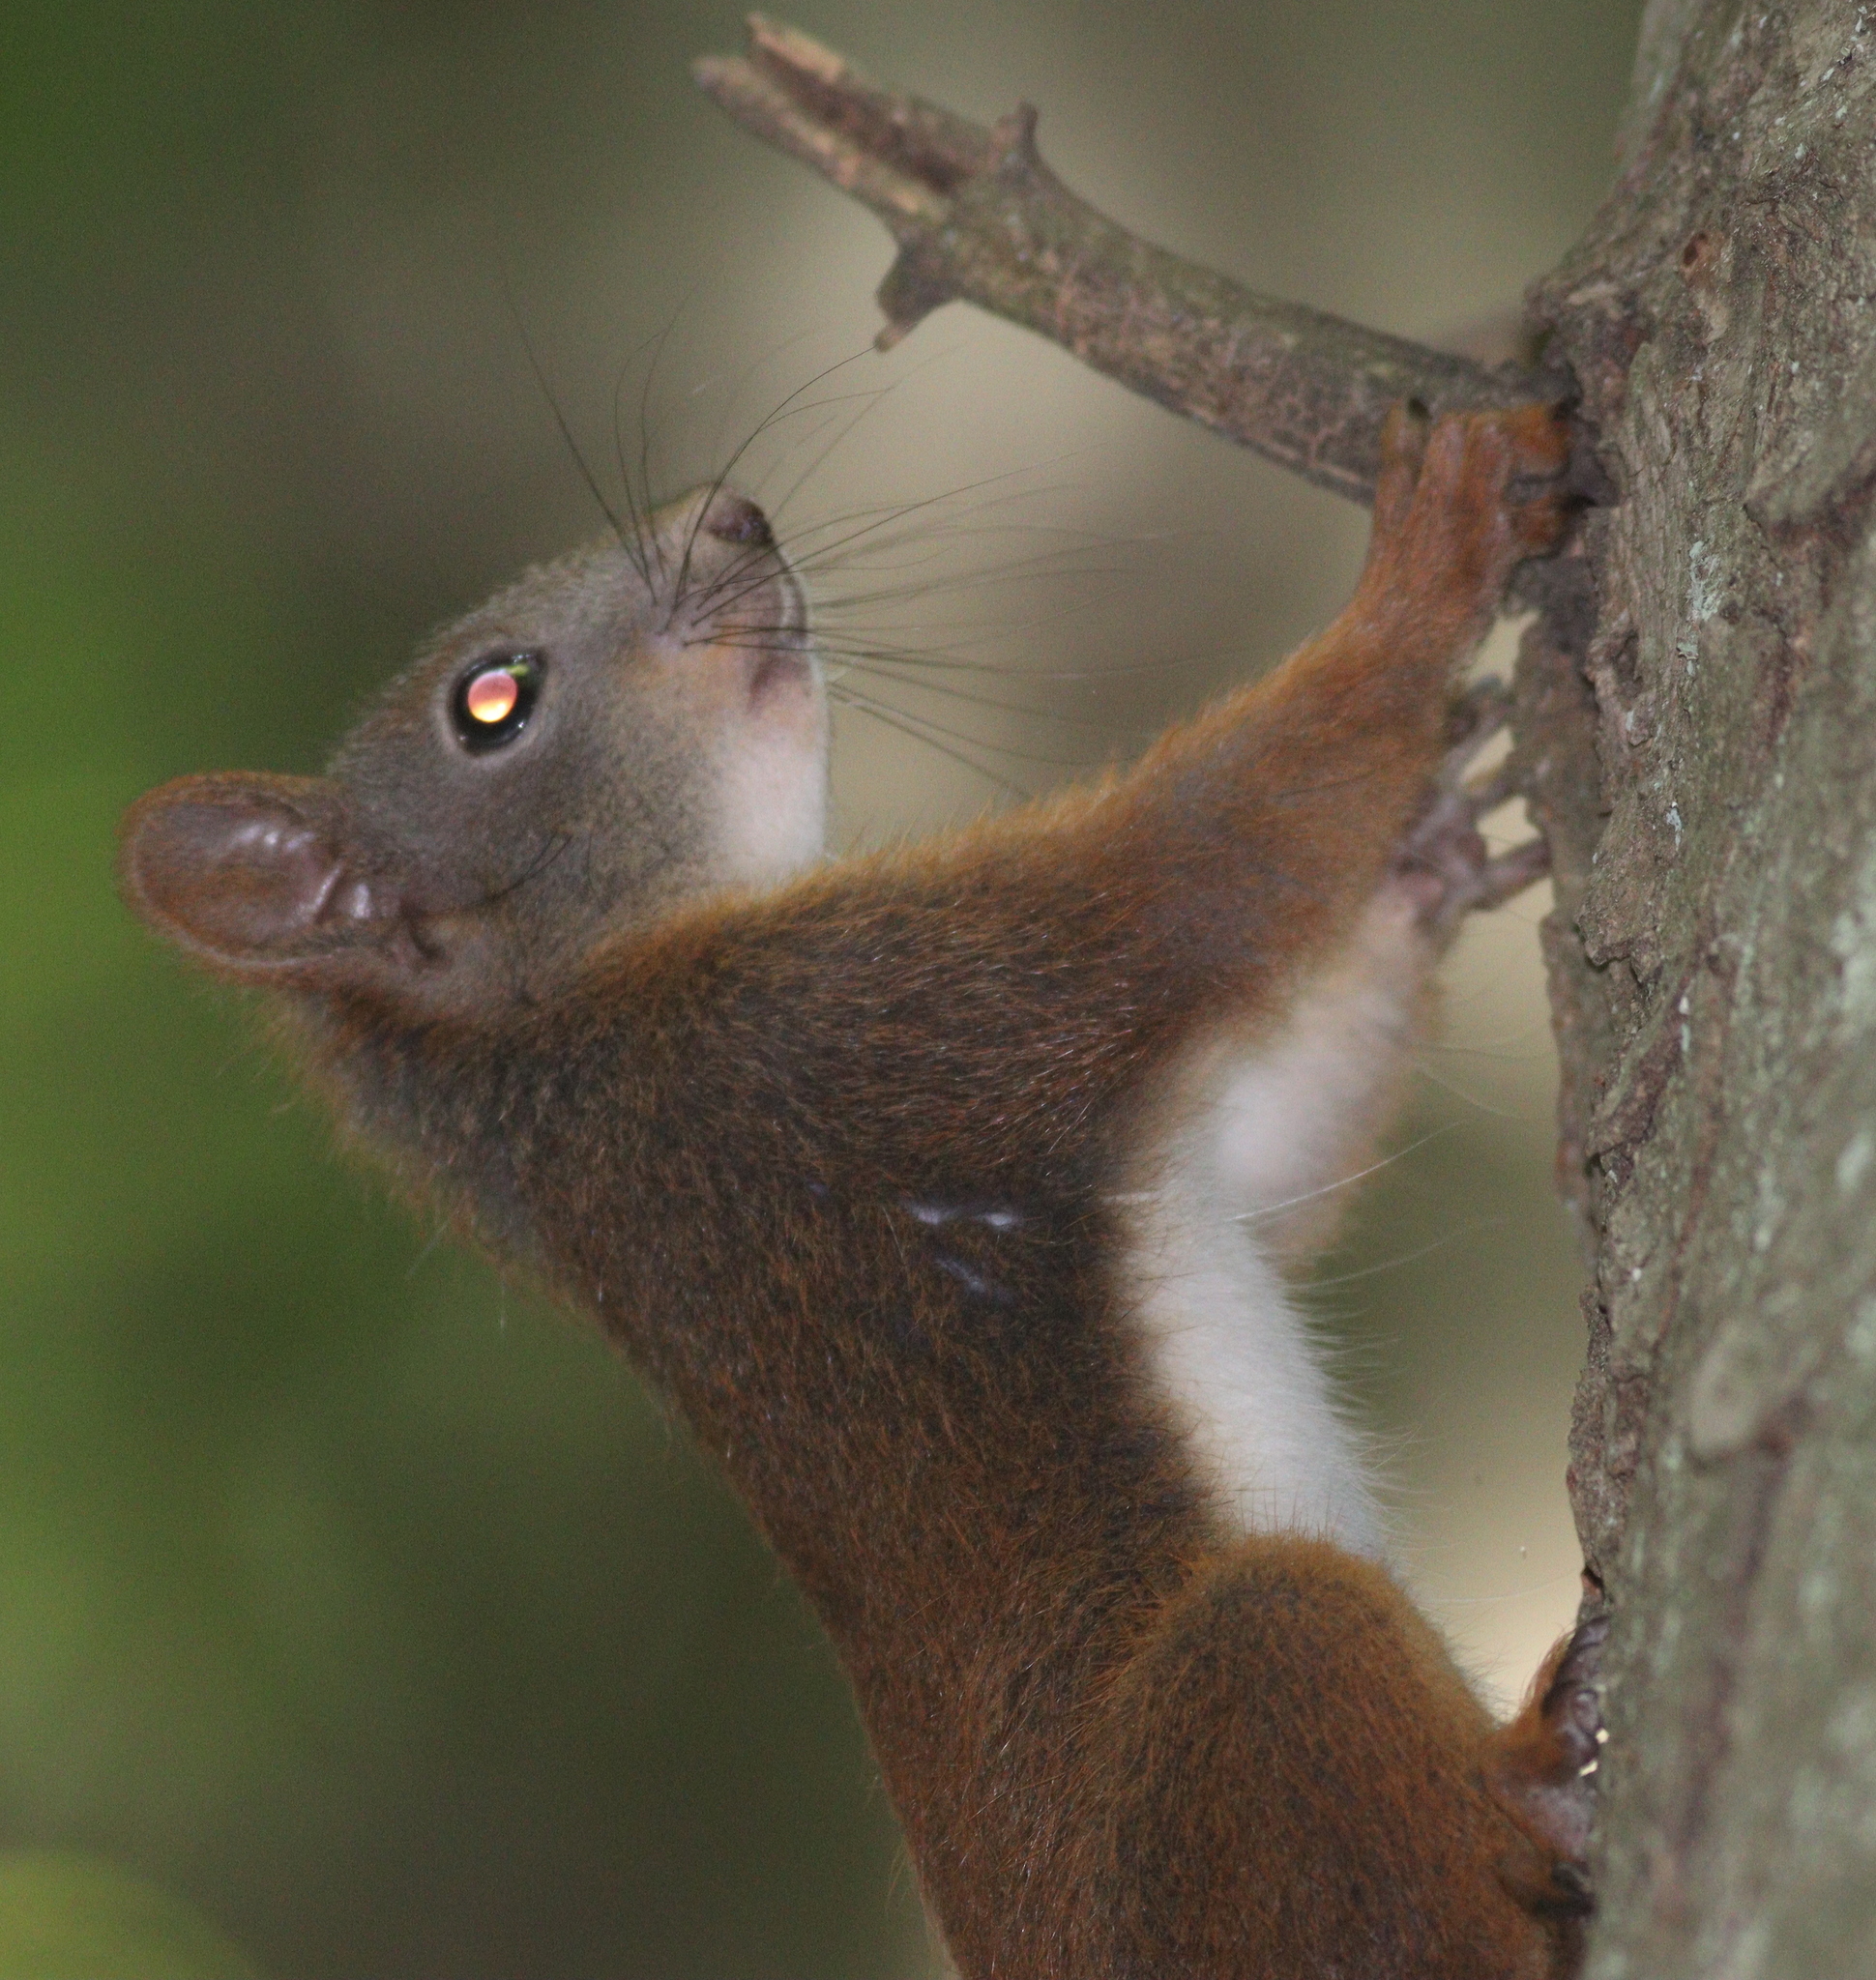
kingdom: Animalia
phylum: Chordata
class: Mammalia
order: Rodentia
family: Sciuridae
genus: Sciurus
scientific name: Sciurus vulgaris
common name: Eurasian red squirrel
